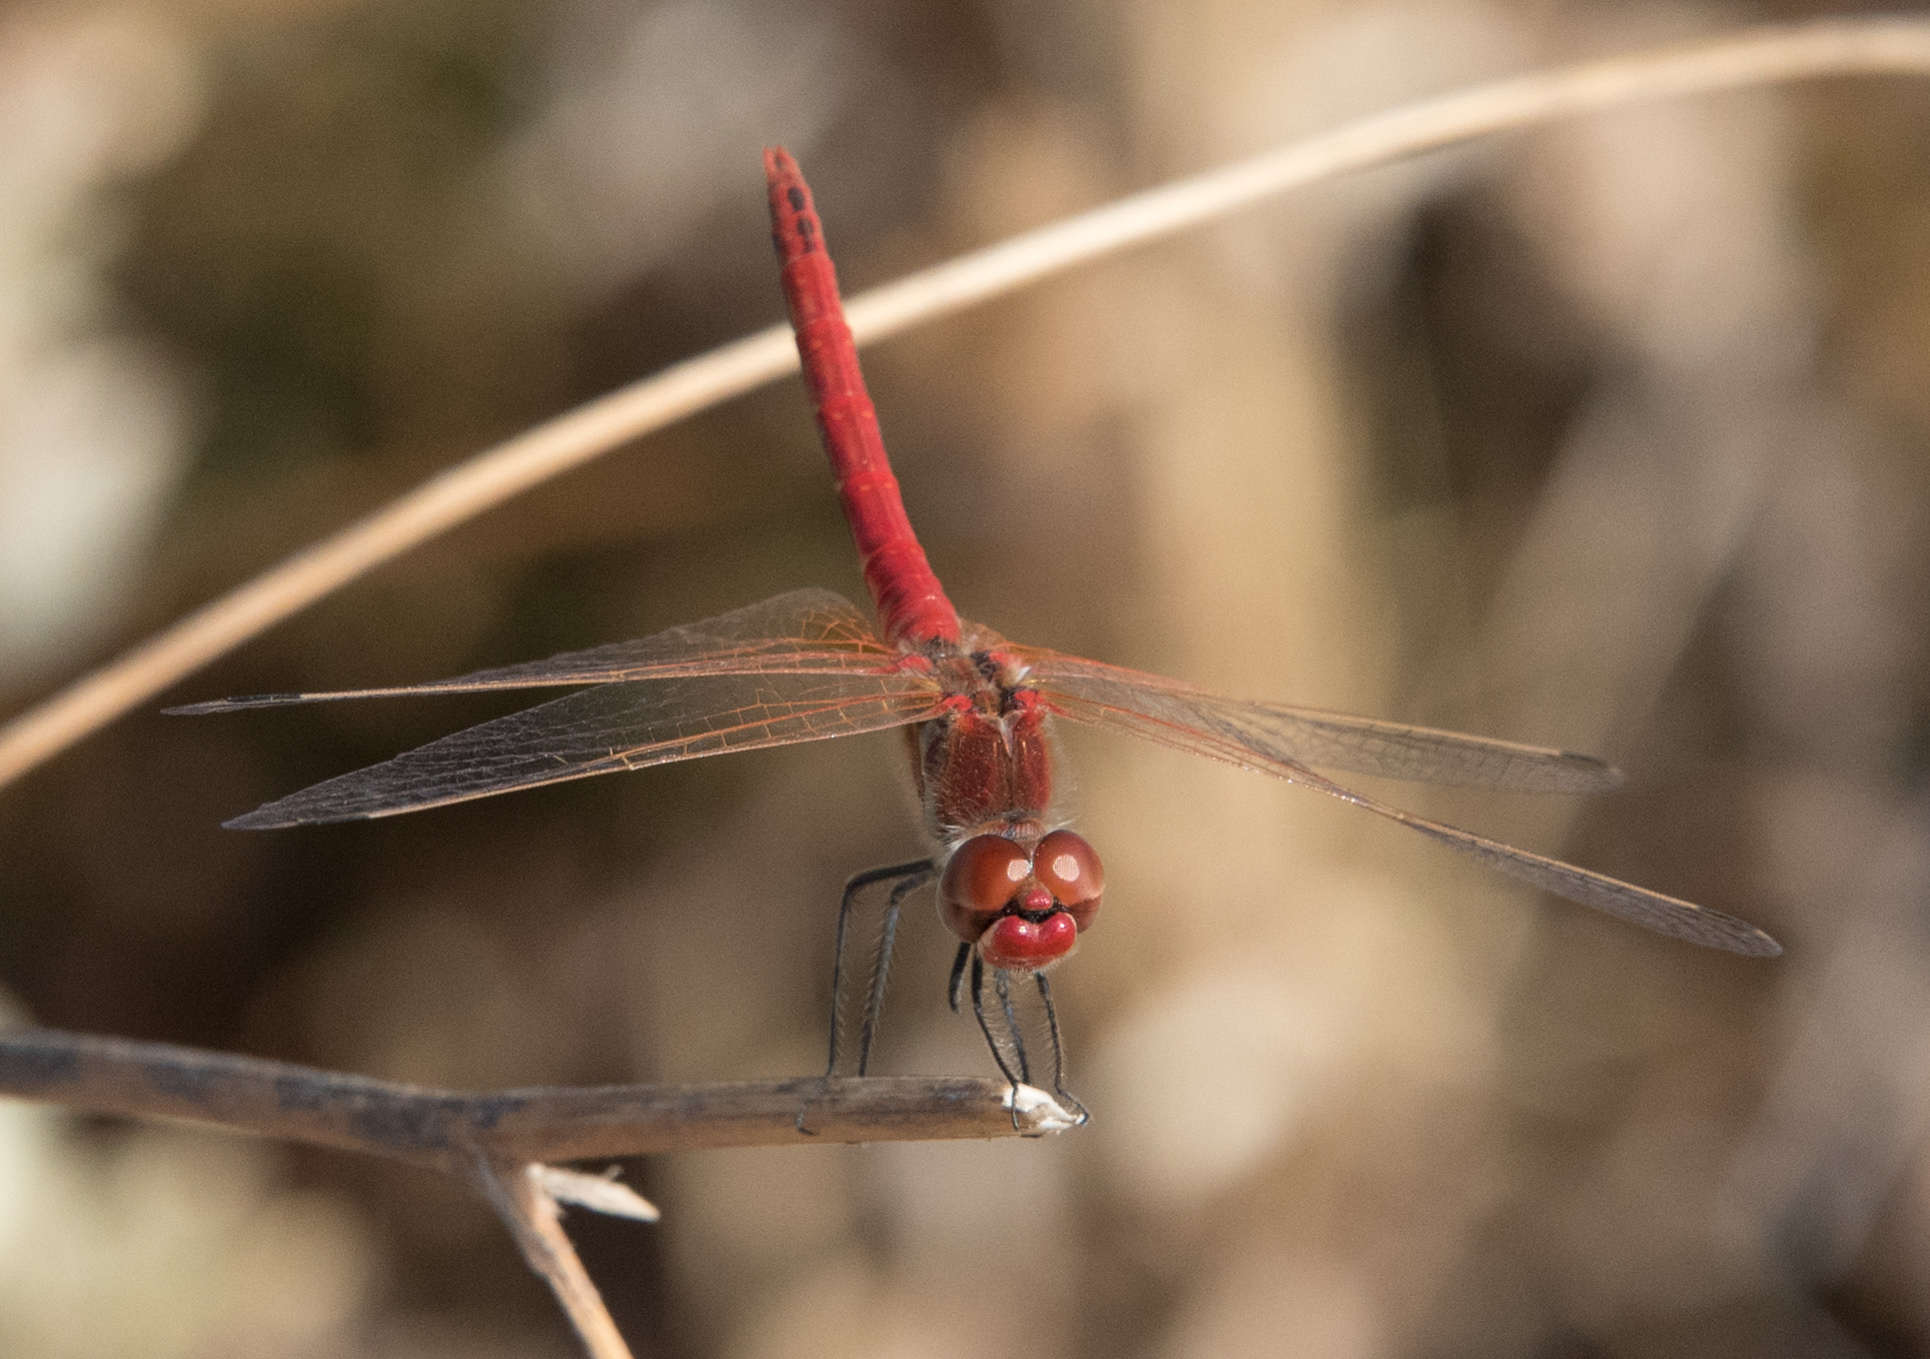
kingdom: Animalia
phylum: Arthropoda
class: Insecta
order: Odonata
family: Libellulidae
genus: Sympetrum
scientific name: Sympetrum fonscolombii
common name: Red-veined darter
